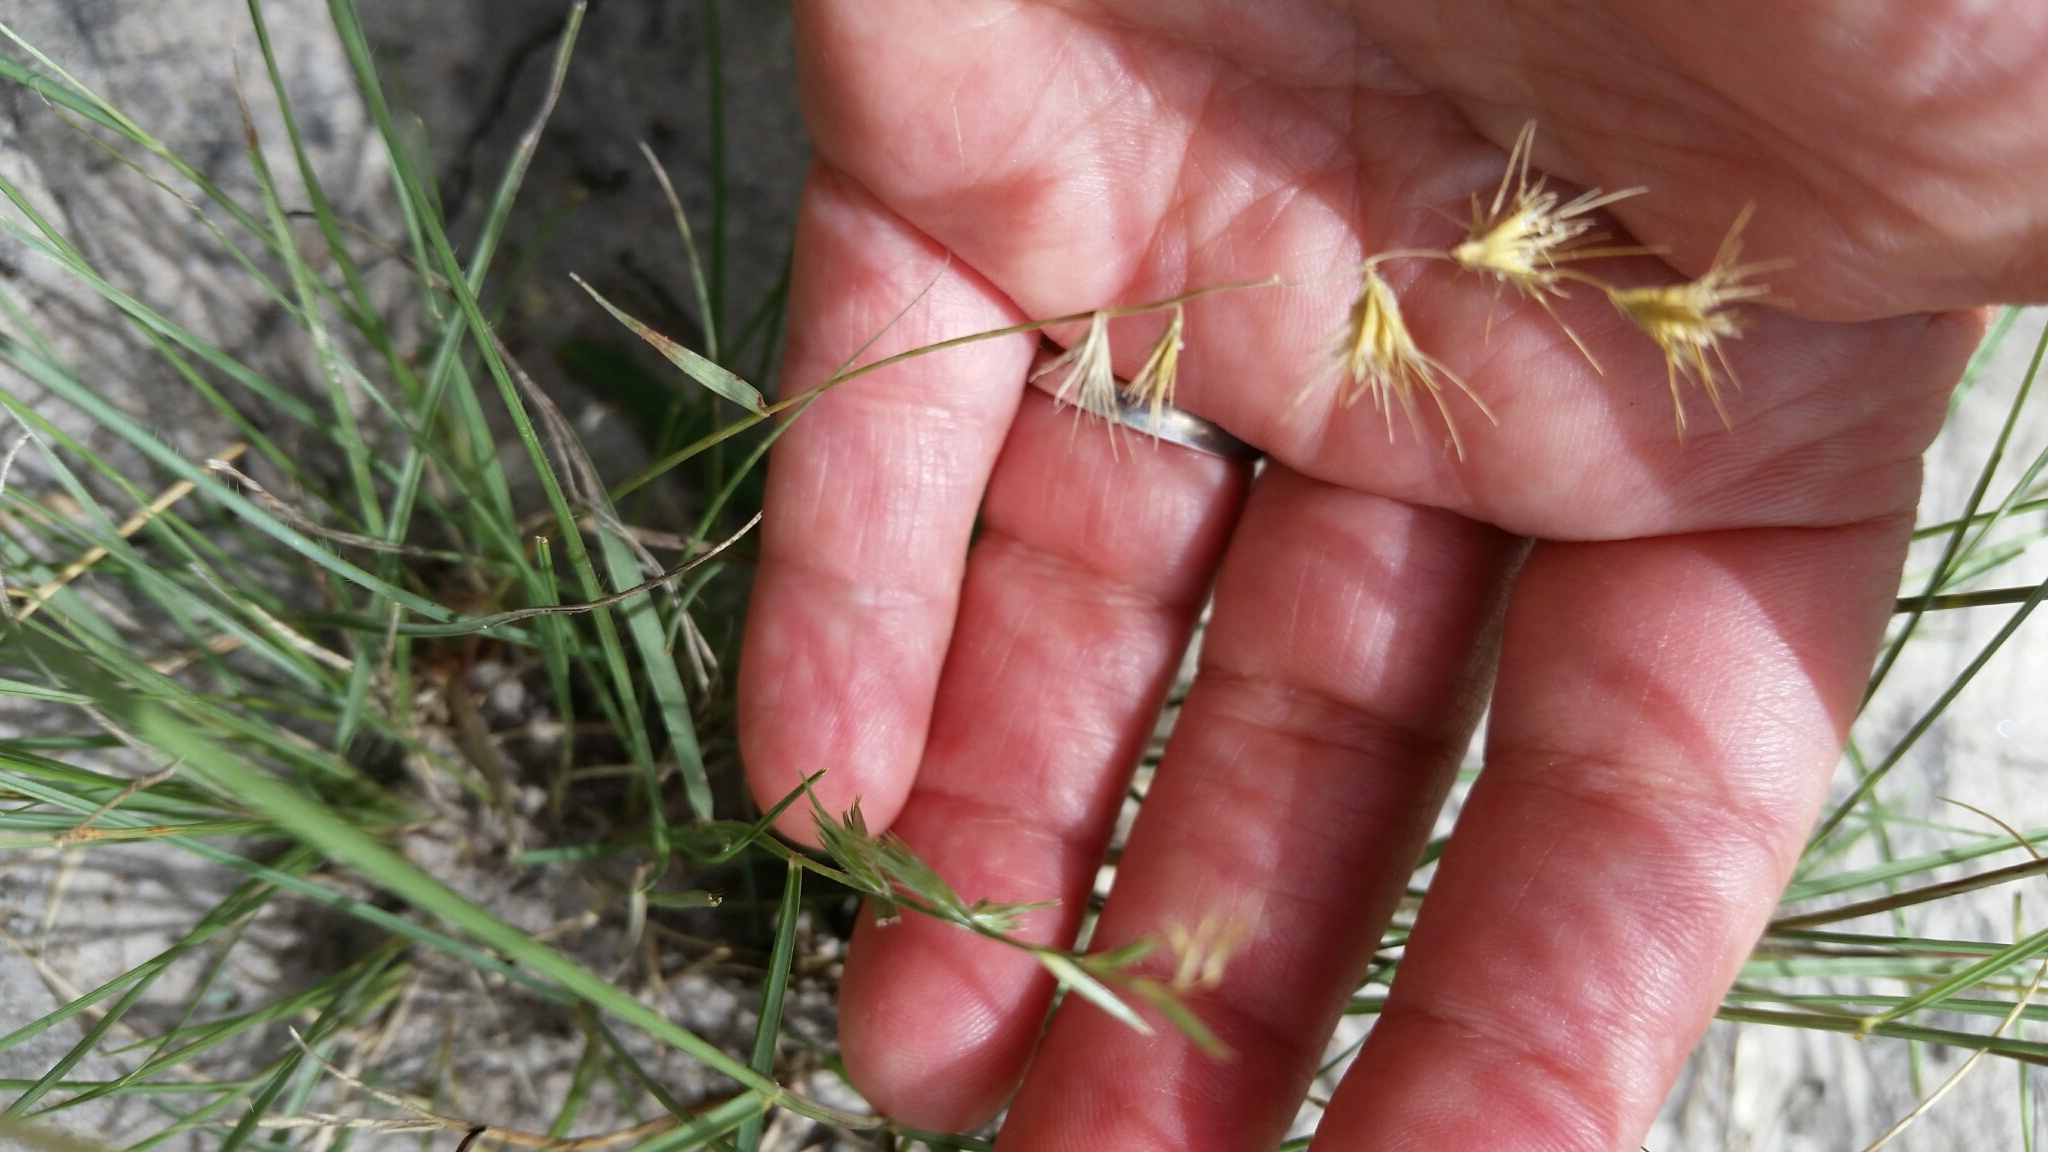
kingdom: Plantae
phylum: Tracheophyta
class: Liliopsida
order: Poales
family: Poaceae
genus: Bouteloua
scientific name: Bouteloua rigidiseta
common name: Texas grama
